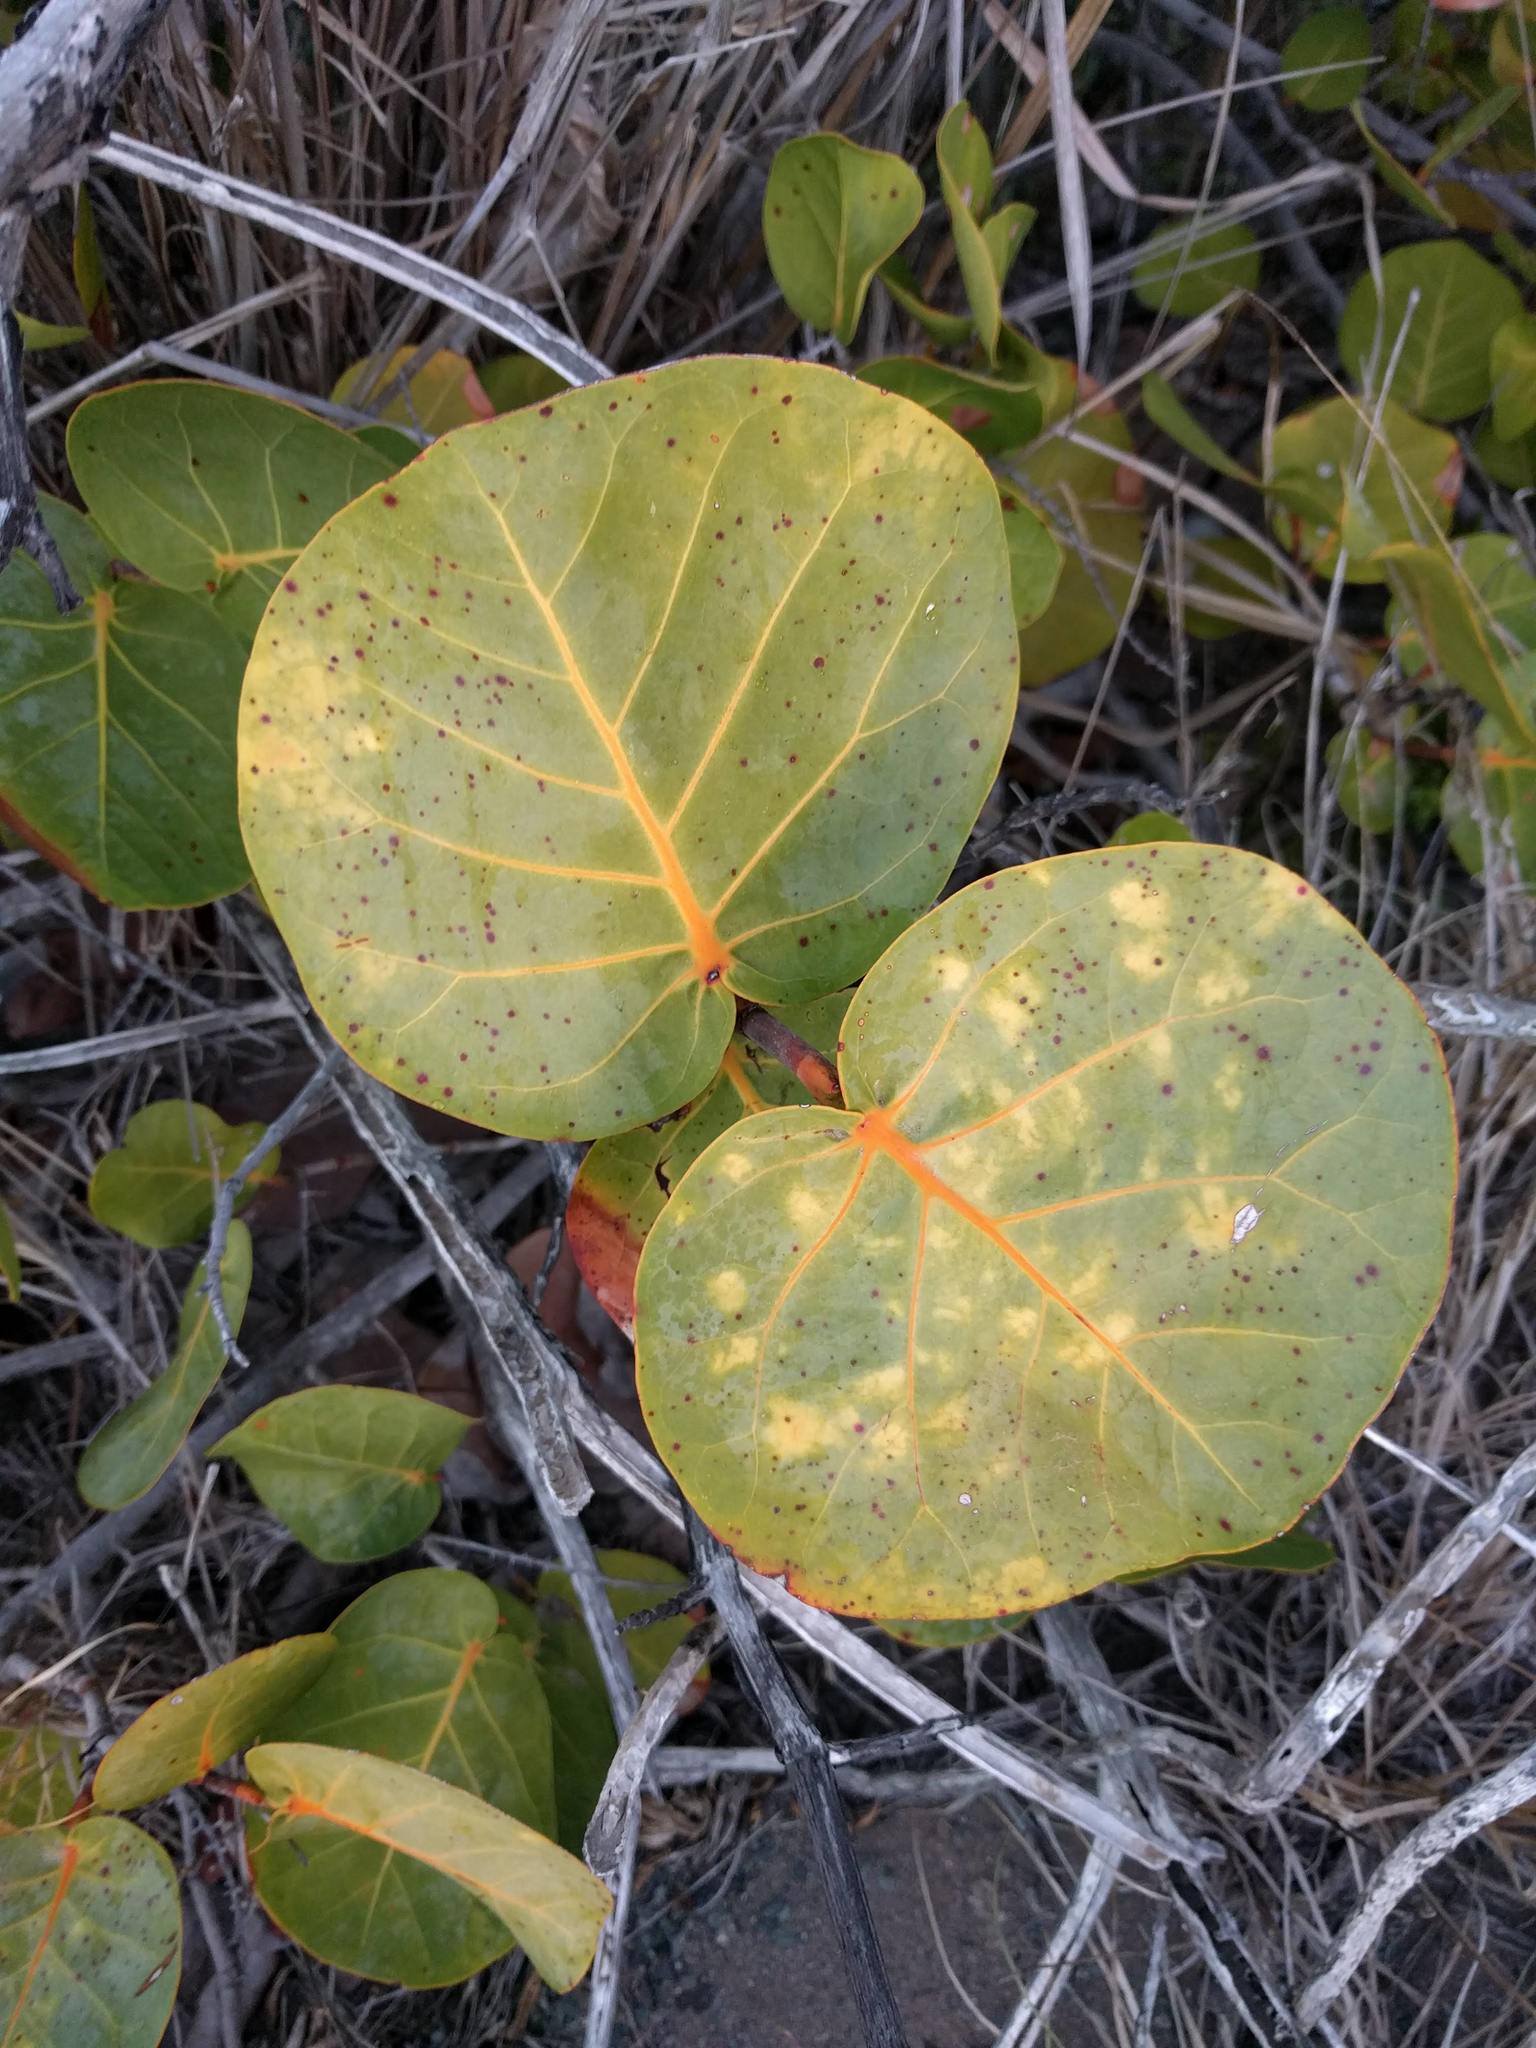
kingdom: Plantae
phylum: Tracheophyta
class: Magnoliopsida
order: Caryophyllales
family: Polygonaceae
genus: Coccoloba
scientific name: Coccoloba uvifera
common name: Seagrape
